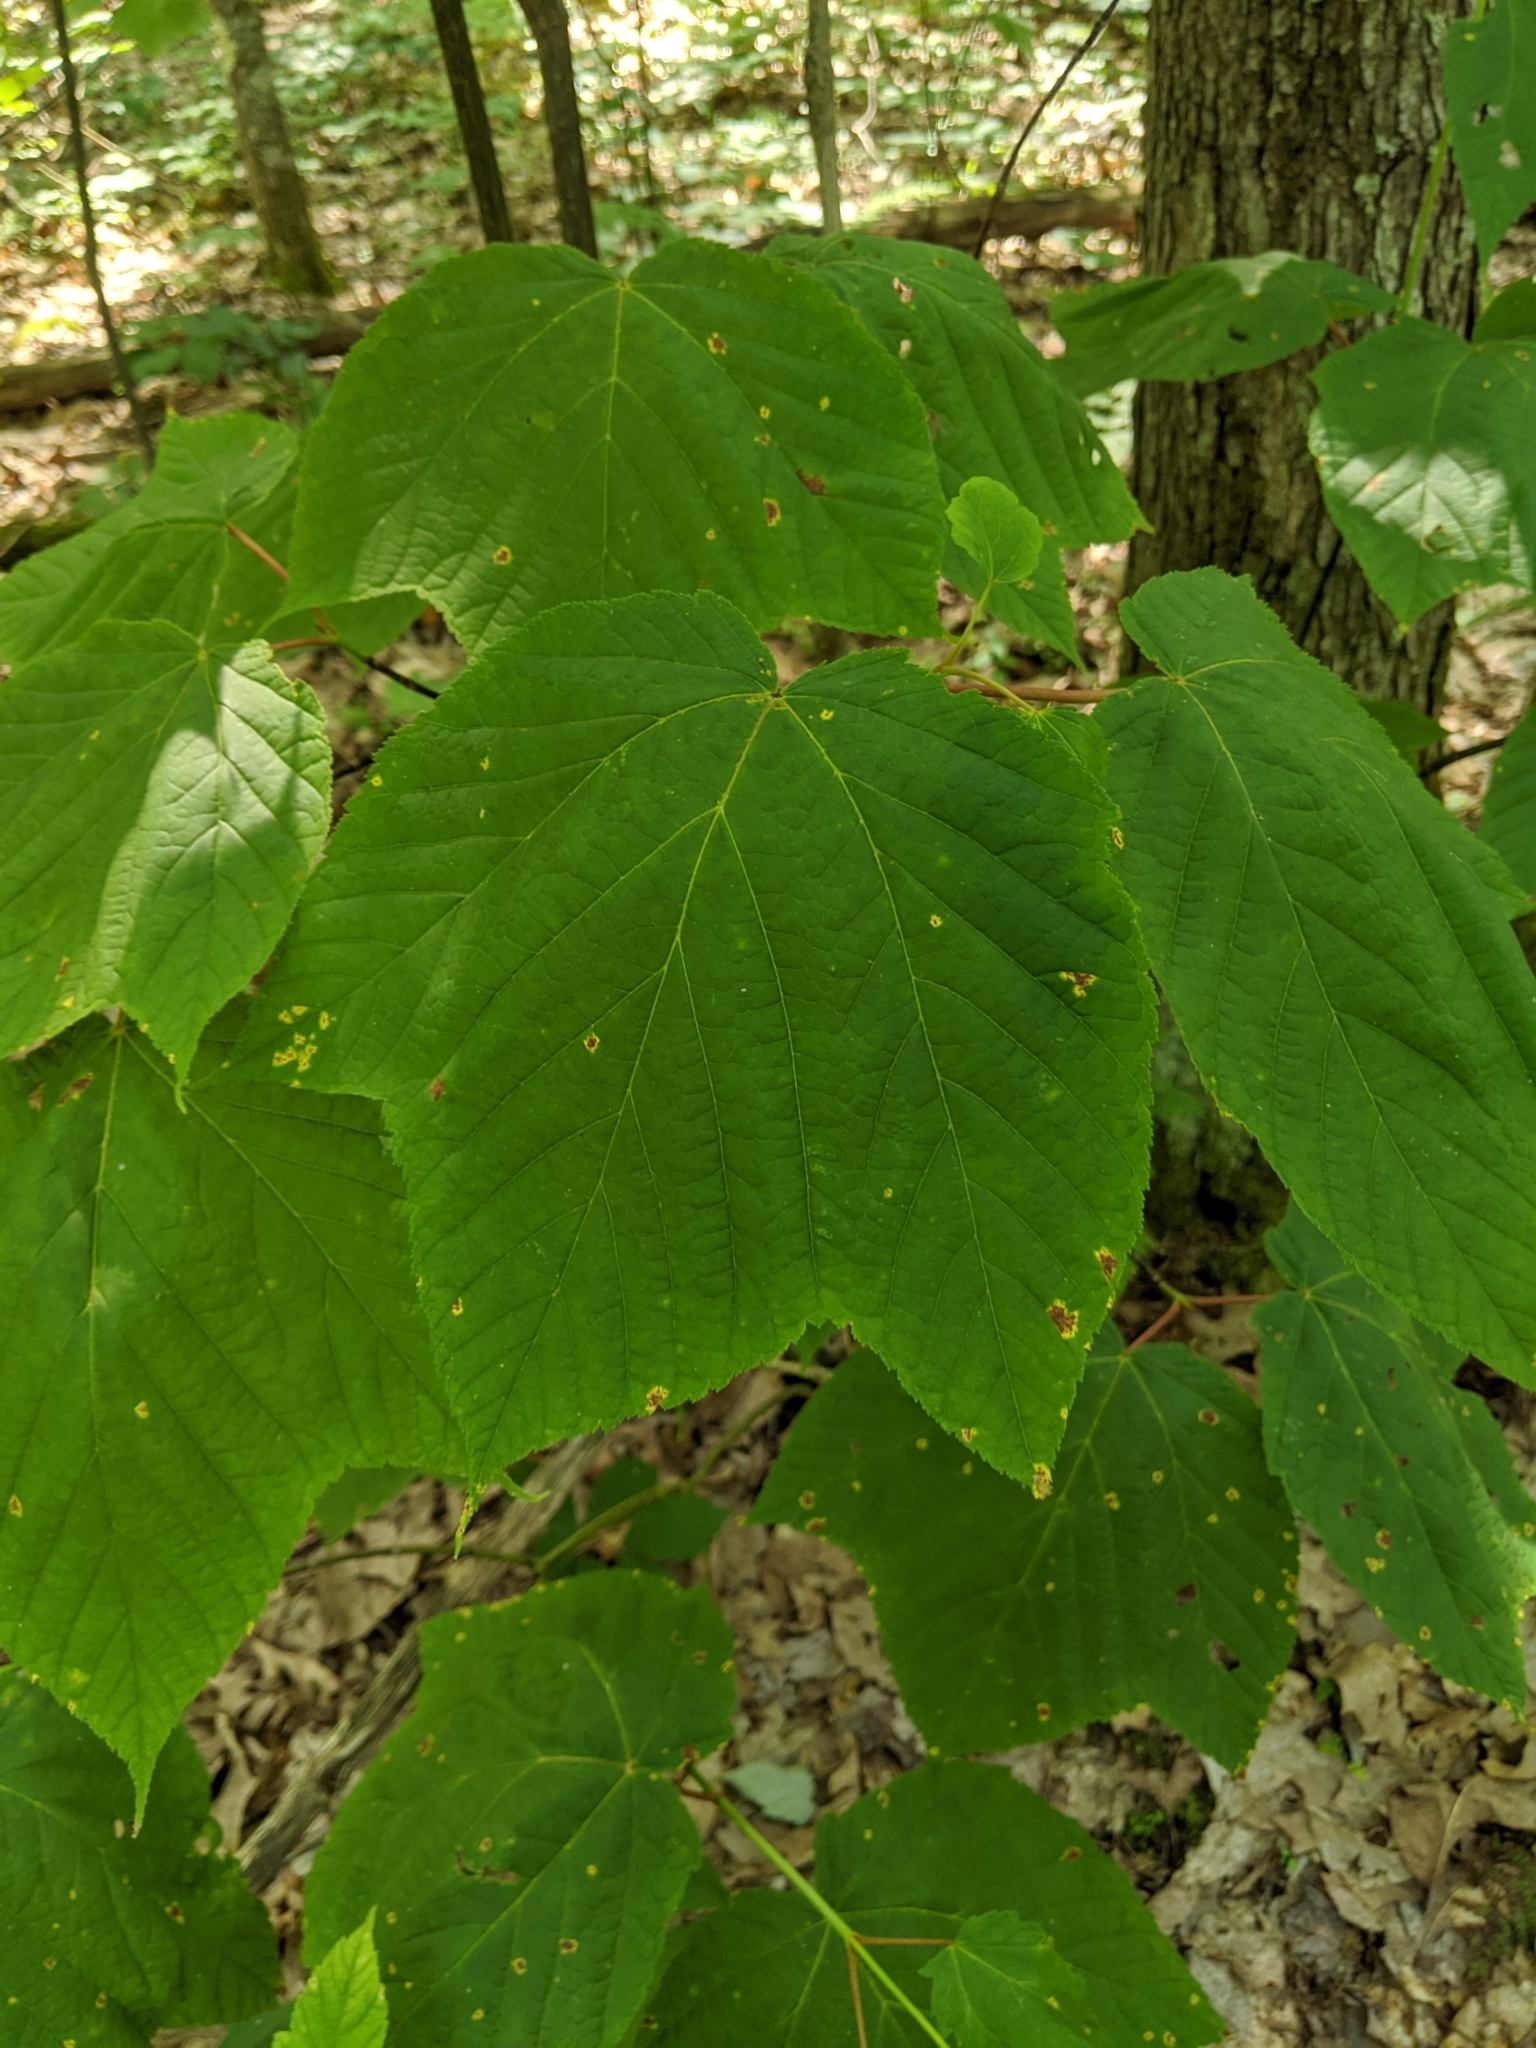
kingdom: Plantae
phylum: Tracheophyta
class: Magnoliopsida
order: Sapindales
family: Sapindaceae
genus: Acer
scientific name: Acer pensylvanicum
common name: Moosewood
